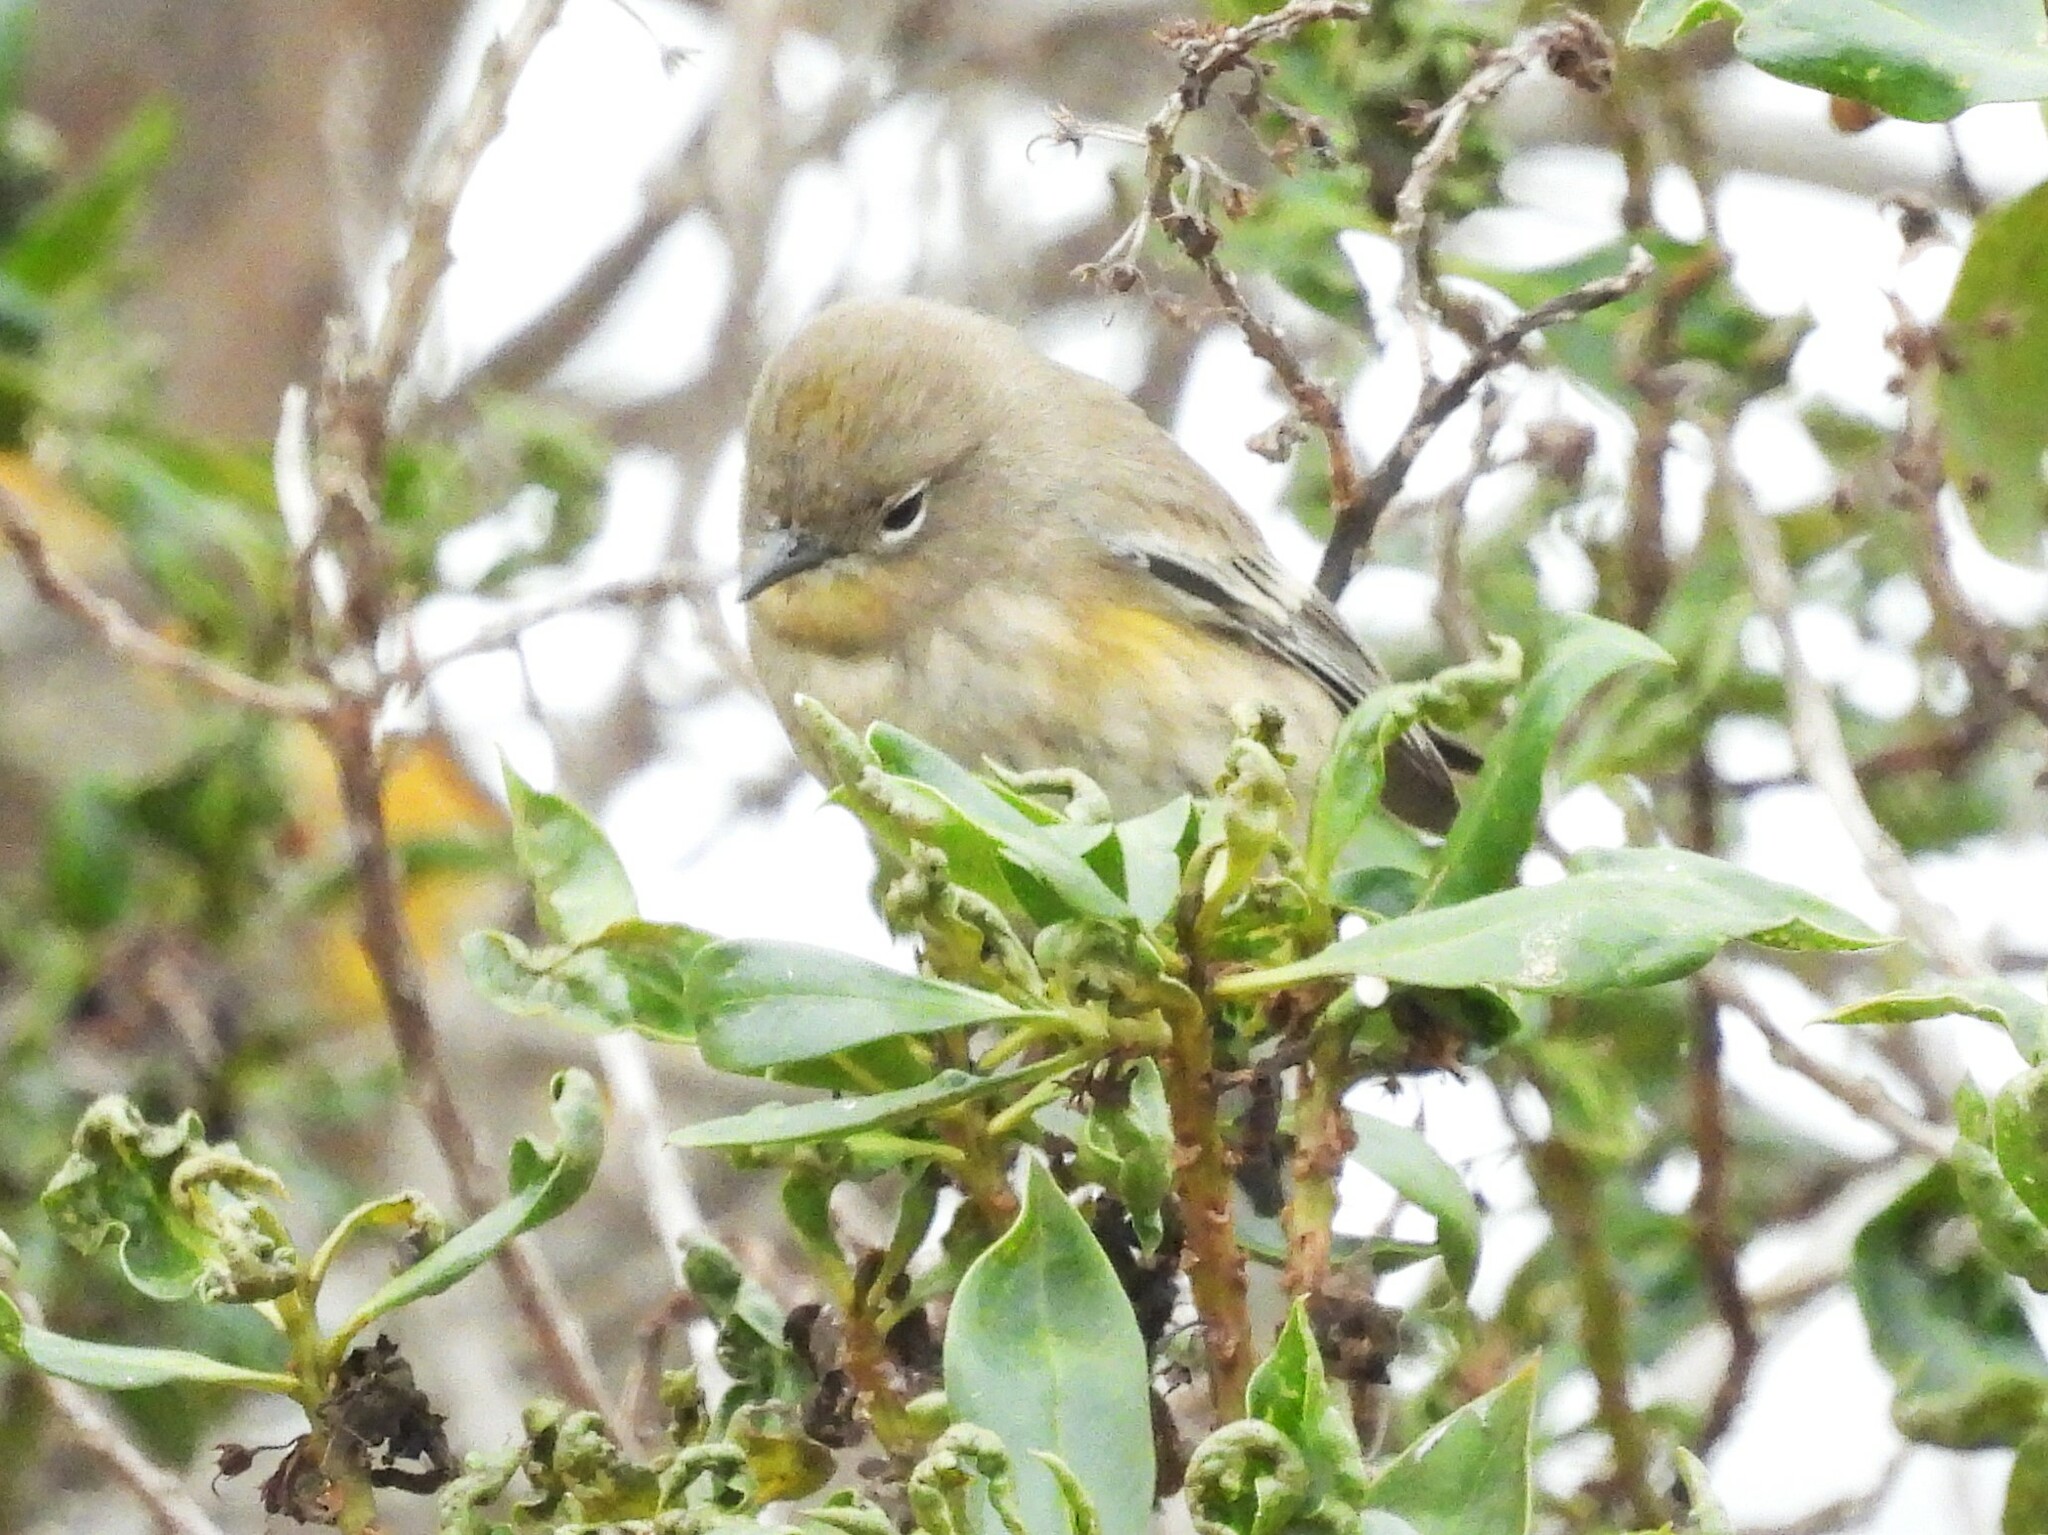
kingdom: Animalia
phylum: Chordata
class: Aves
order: Passeriformes
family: Parulidae
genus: Setophaga
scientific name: Setophaga coronata
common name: Myrtle warbler
